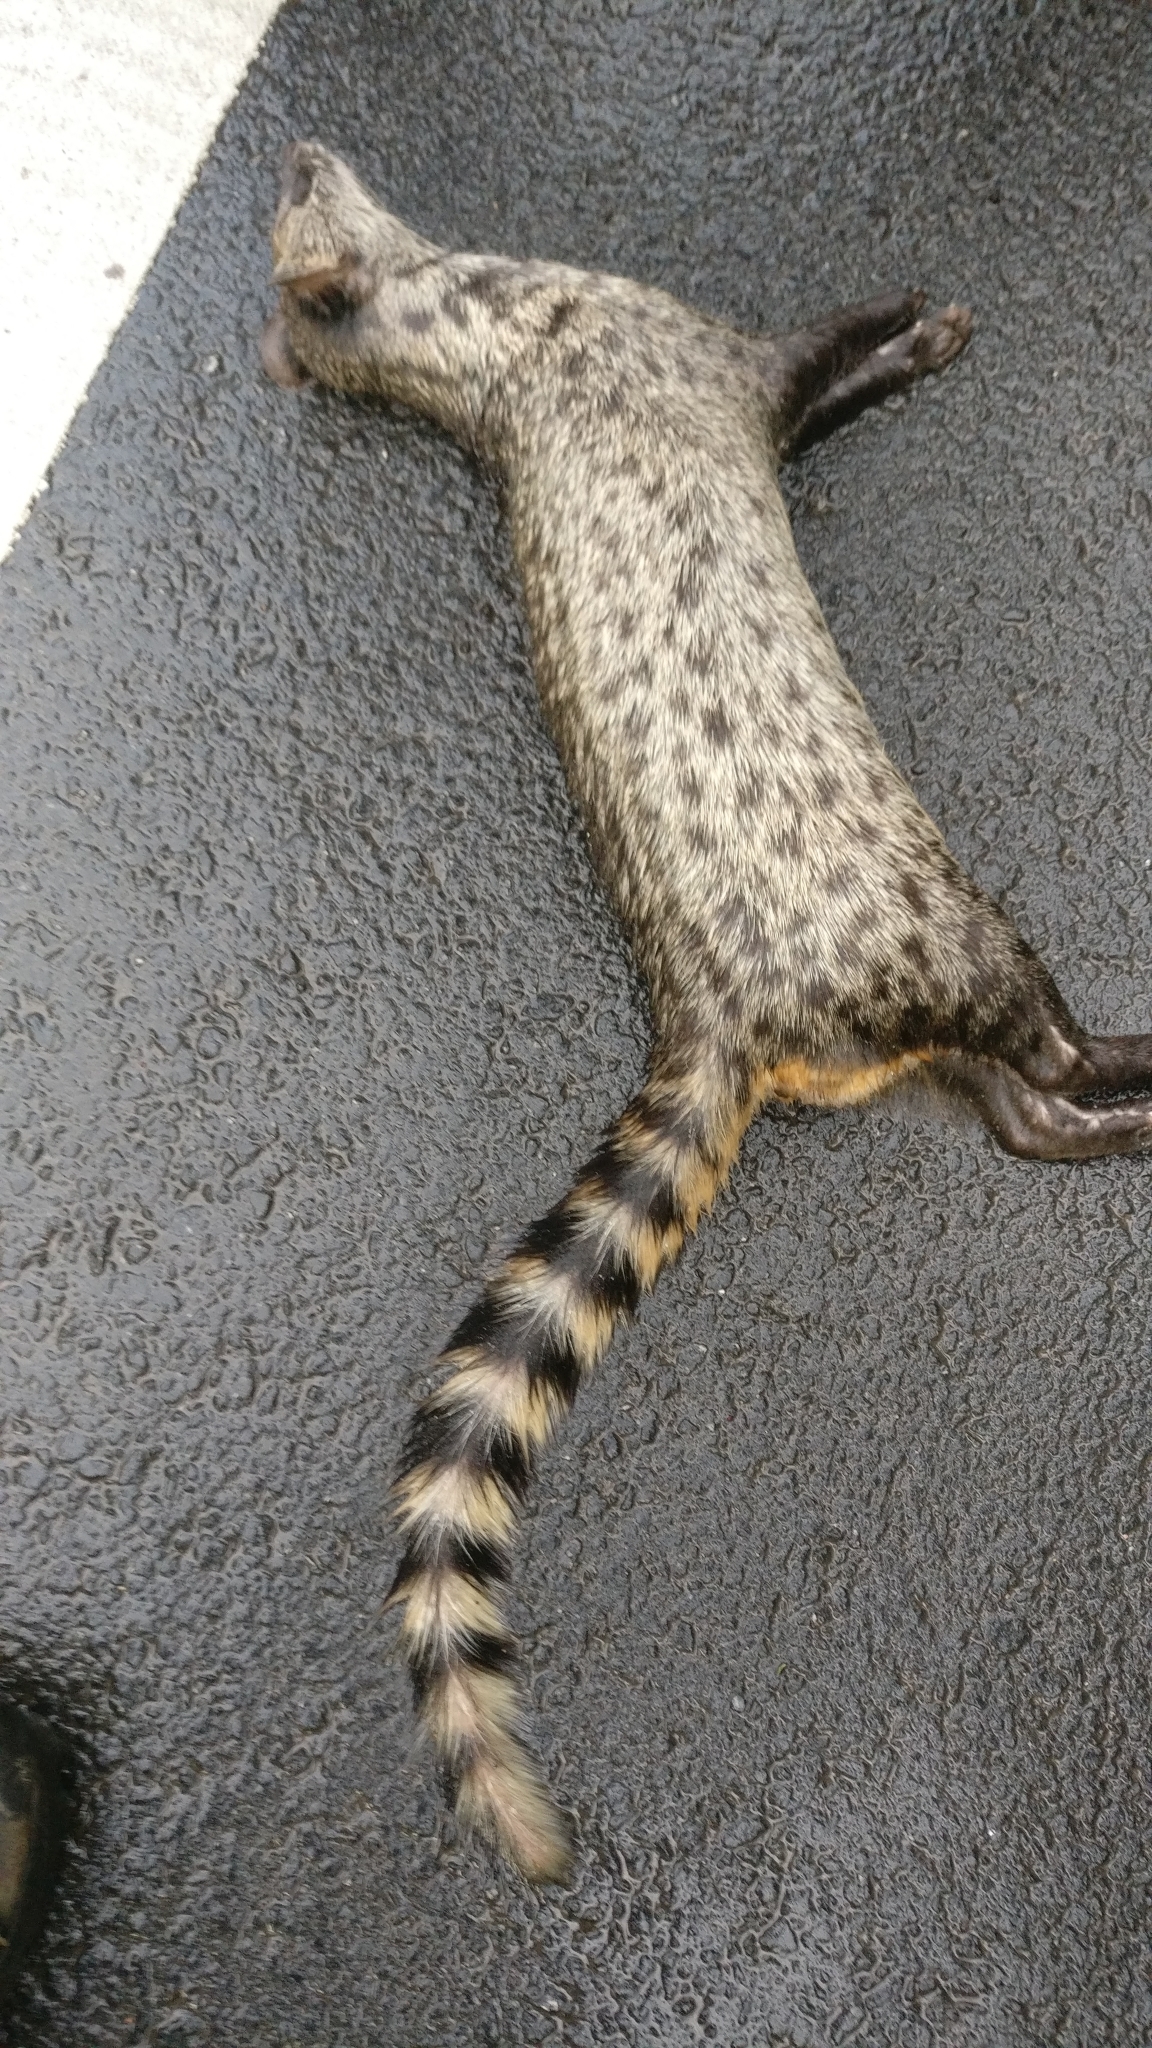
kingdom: Animalia
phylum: Chordata
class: Mammalia
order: Carnivora
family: Viverridae
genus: Viverricula
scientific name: Viverricula indica
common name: Small indian civet
